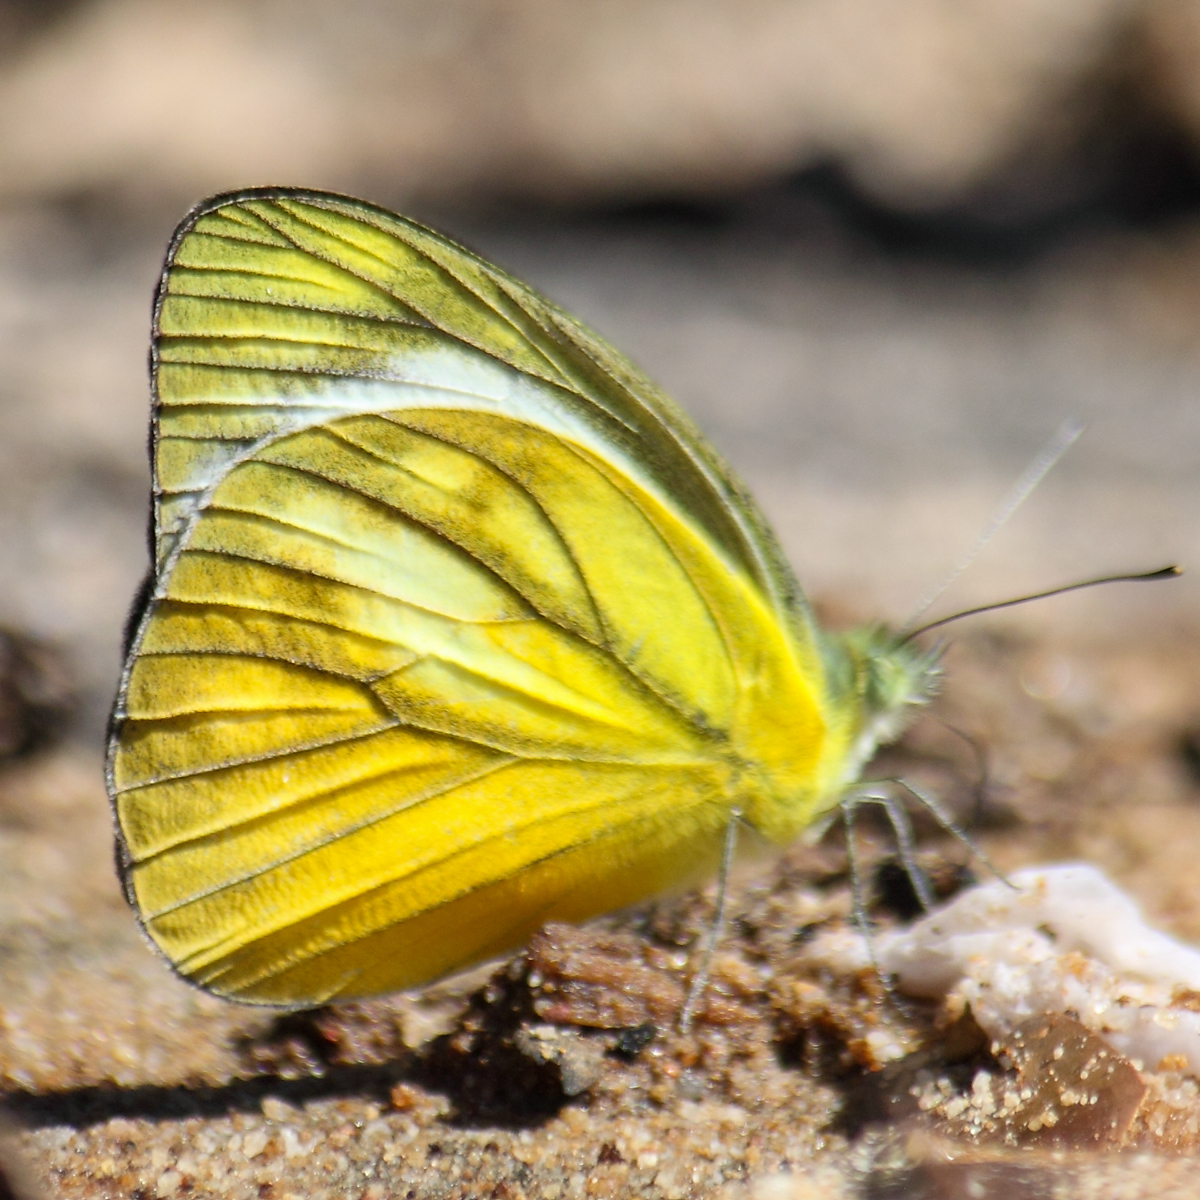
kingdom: Animalia
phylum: Arthropoda
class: Insecta
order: Lepidoptera
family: Pieridae
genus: Cepora
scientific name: Cepora nadina
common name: Lesser gull
